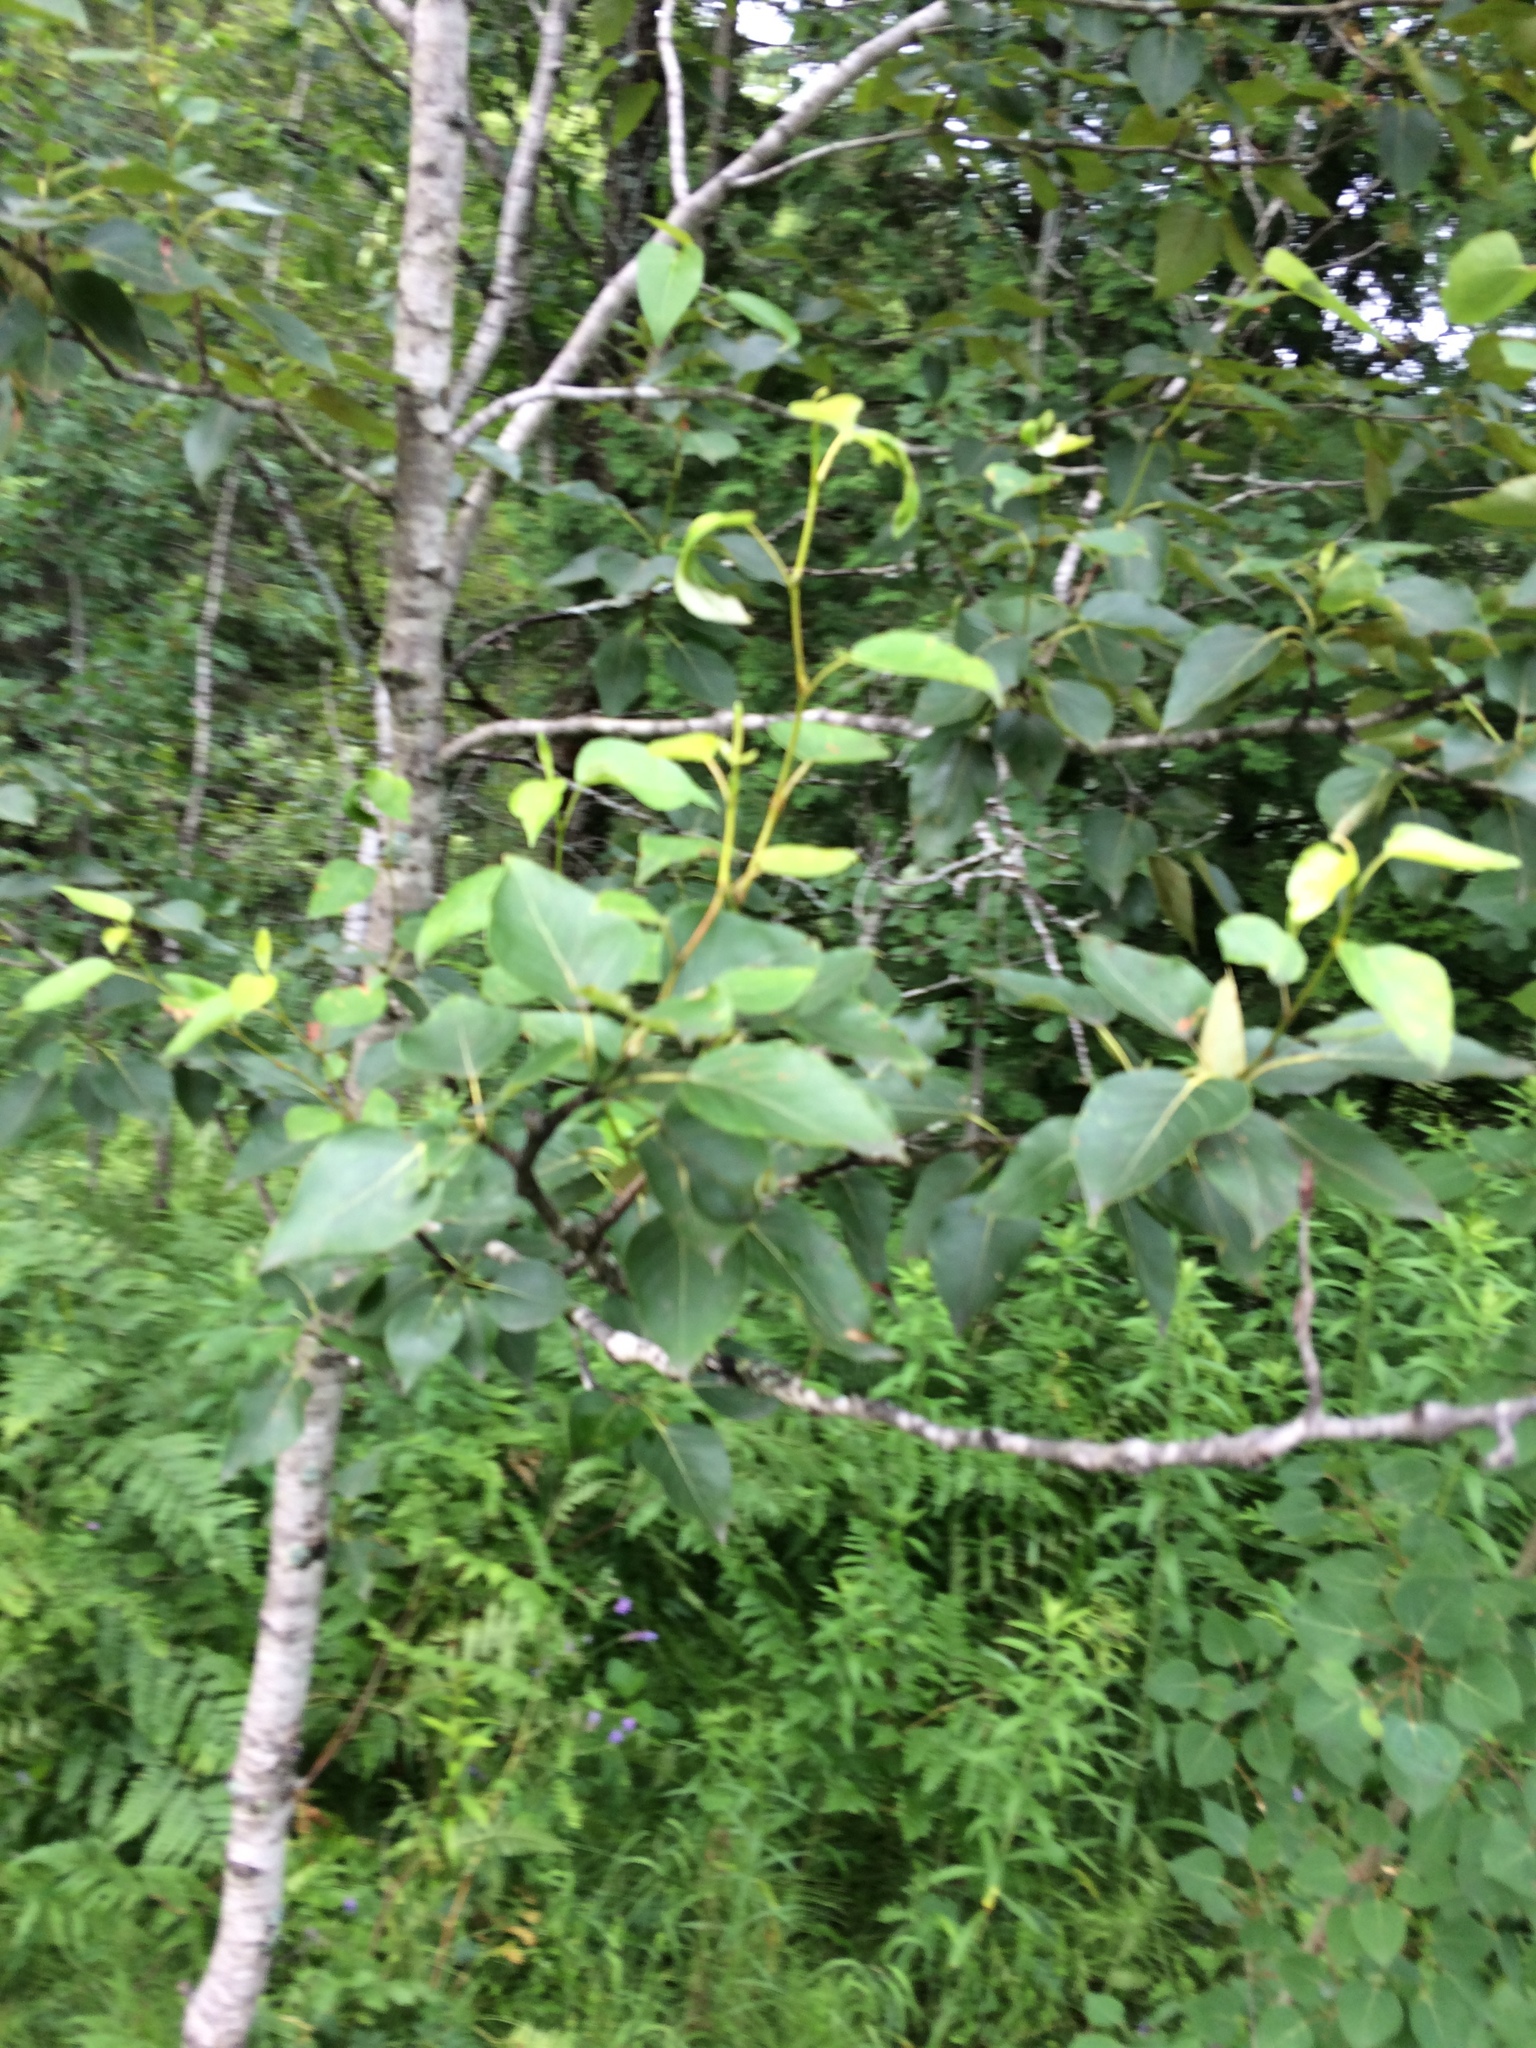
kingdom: Plantae
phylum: Tracheophyta
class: Magnoliopsida
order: Malpighiales
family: Salicaceae
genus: Populus
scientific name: Populus balsamifera
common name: Balsam poplar
